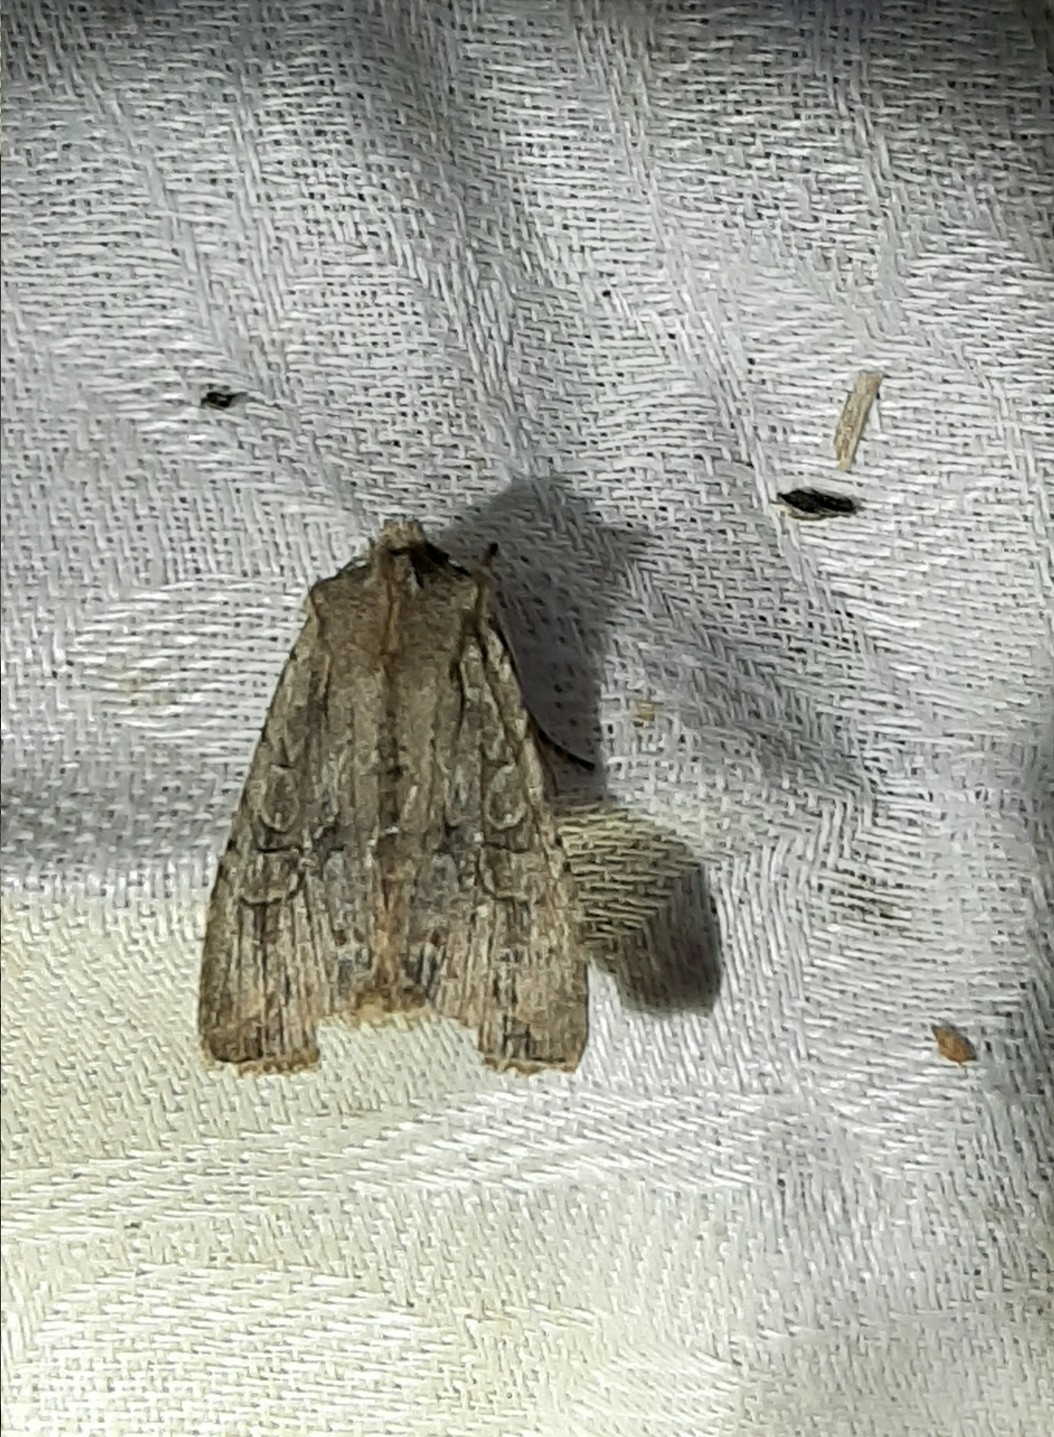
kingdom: Animalia
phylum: Arthropoda
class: Insecta
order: Lepidoptera
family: Noctuidae
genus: Lithophane
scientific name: Lithophane disposita
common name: Dashed gray pinion moth
